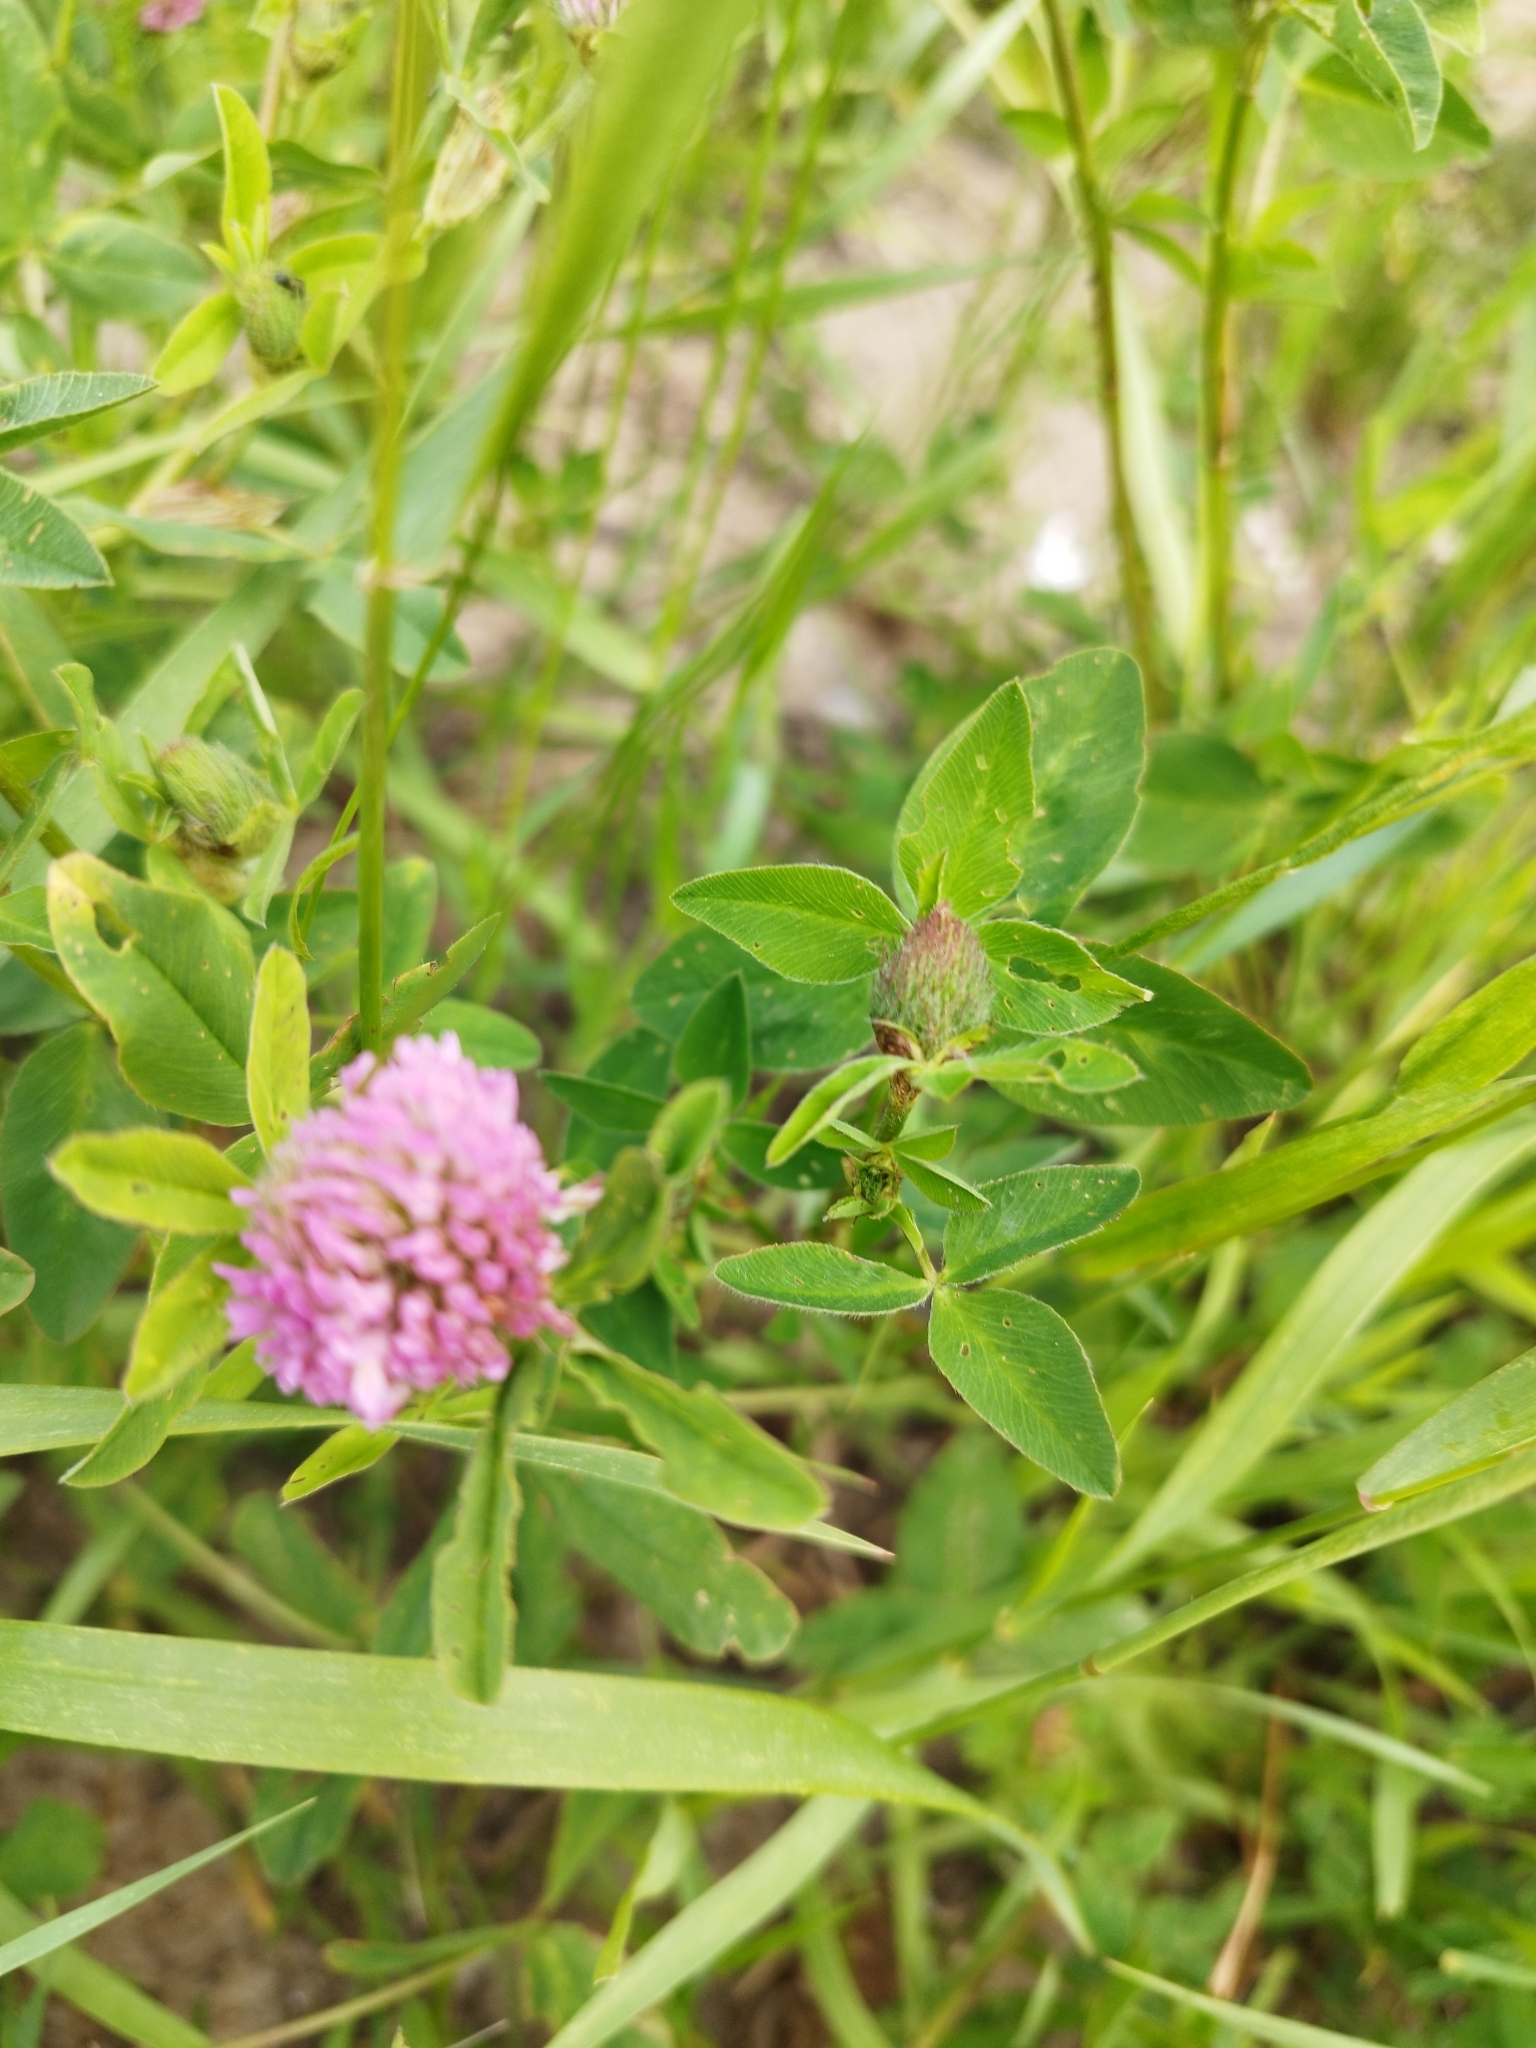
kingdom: Plantae
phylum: Tracheophyta
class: Magnoliopsida
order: Fabales
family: Fabaceae
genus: Trifolium
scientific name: Trifolium pratense
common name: Red clover
